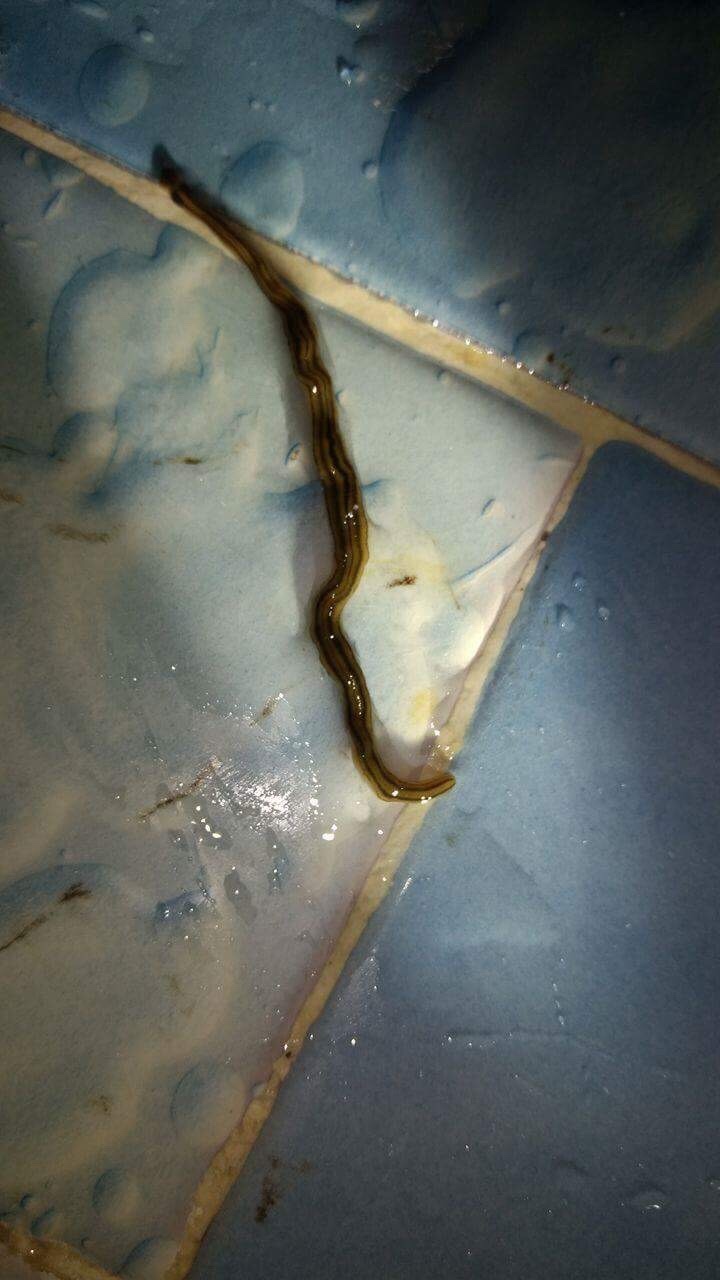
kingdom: Animalia
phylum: Platyhelminthes
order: Tricladida
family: Geoplanidae
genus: Bipalium
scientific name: Bipalium kewense
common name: Hammerhead flatworm
